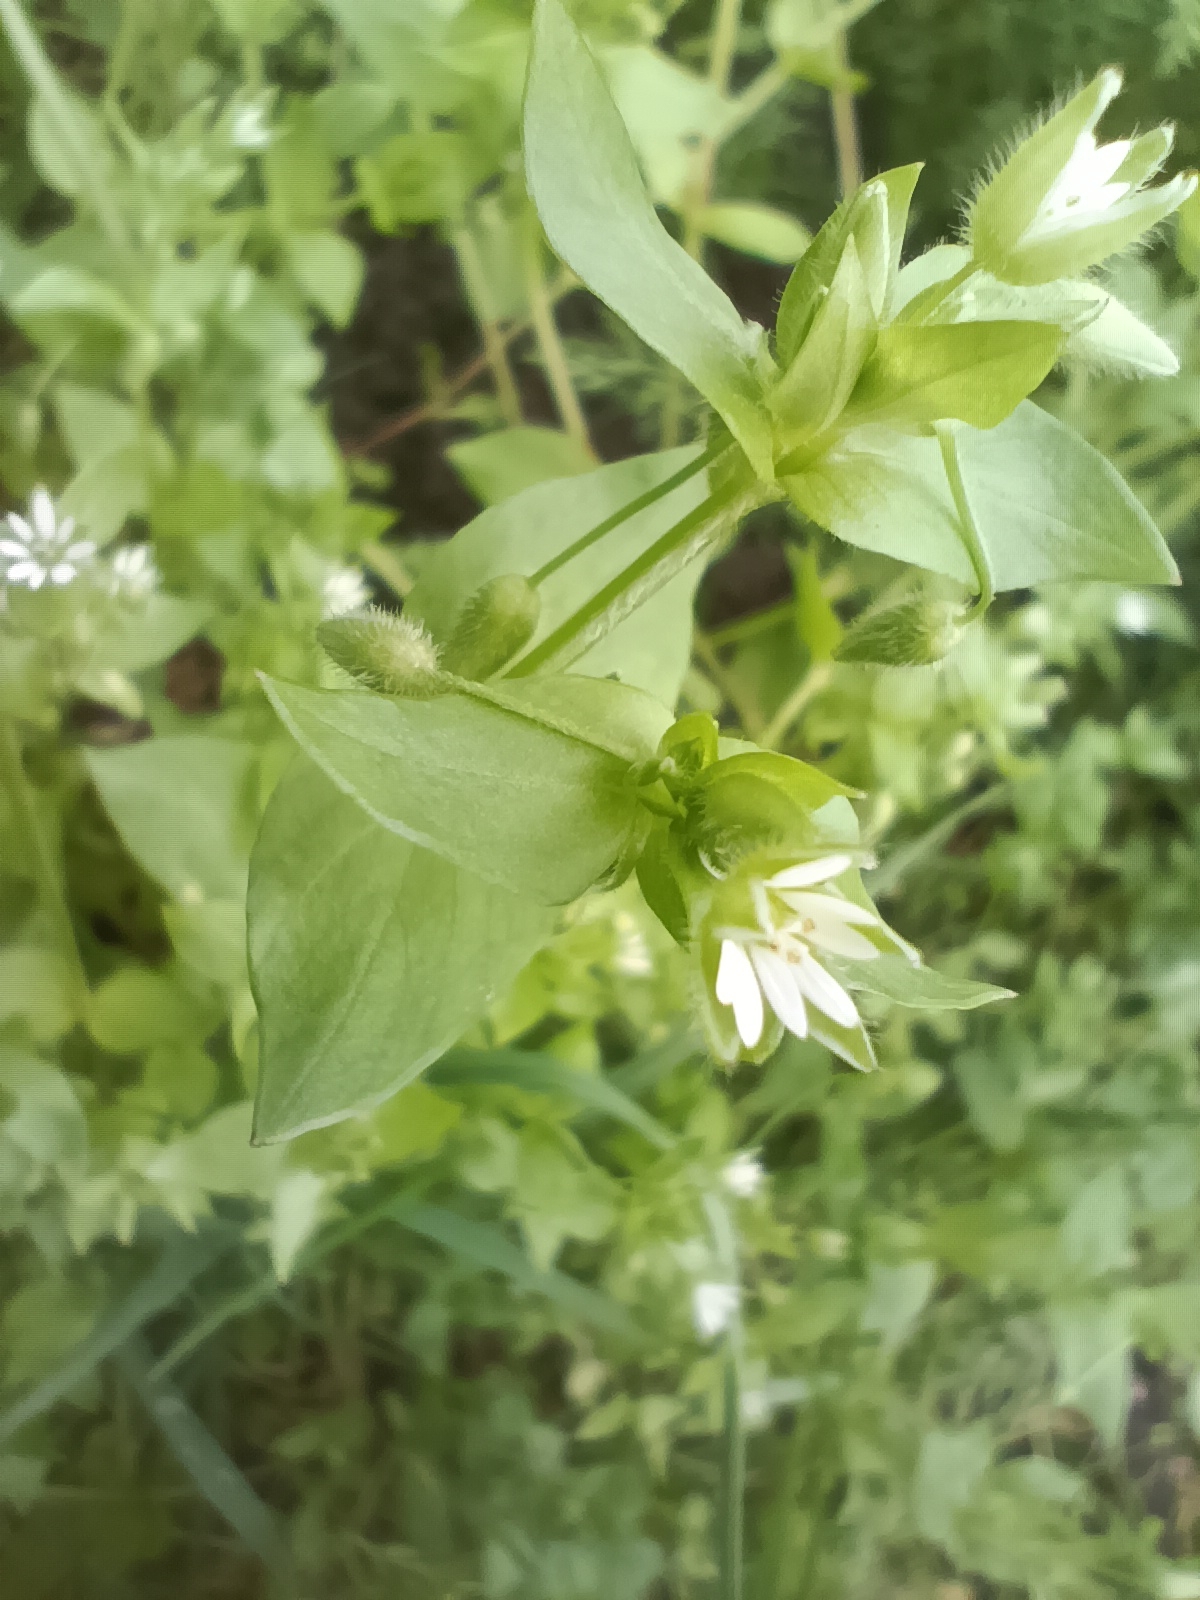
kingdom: Plantae
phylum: Tracheophyta
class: Magnoliopsida
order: Caryophyllales
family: Caryophyllaceae
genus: Stellaria
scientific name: Stellaria media
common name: Common chickweed
